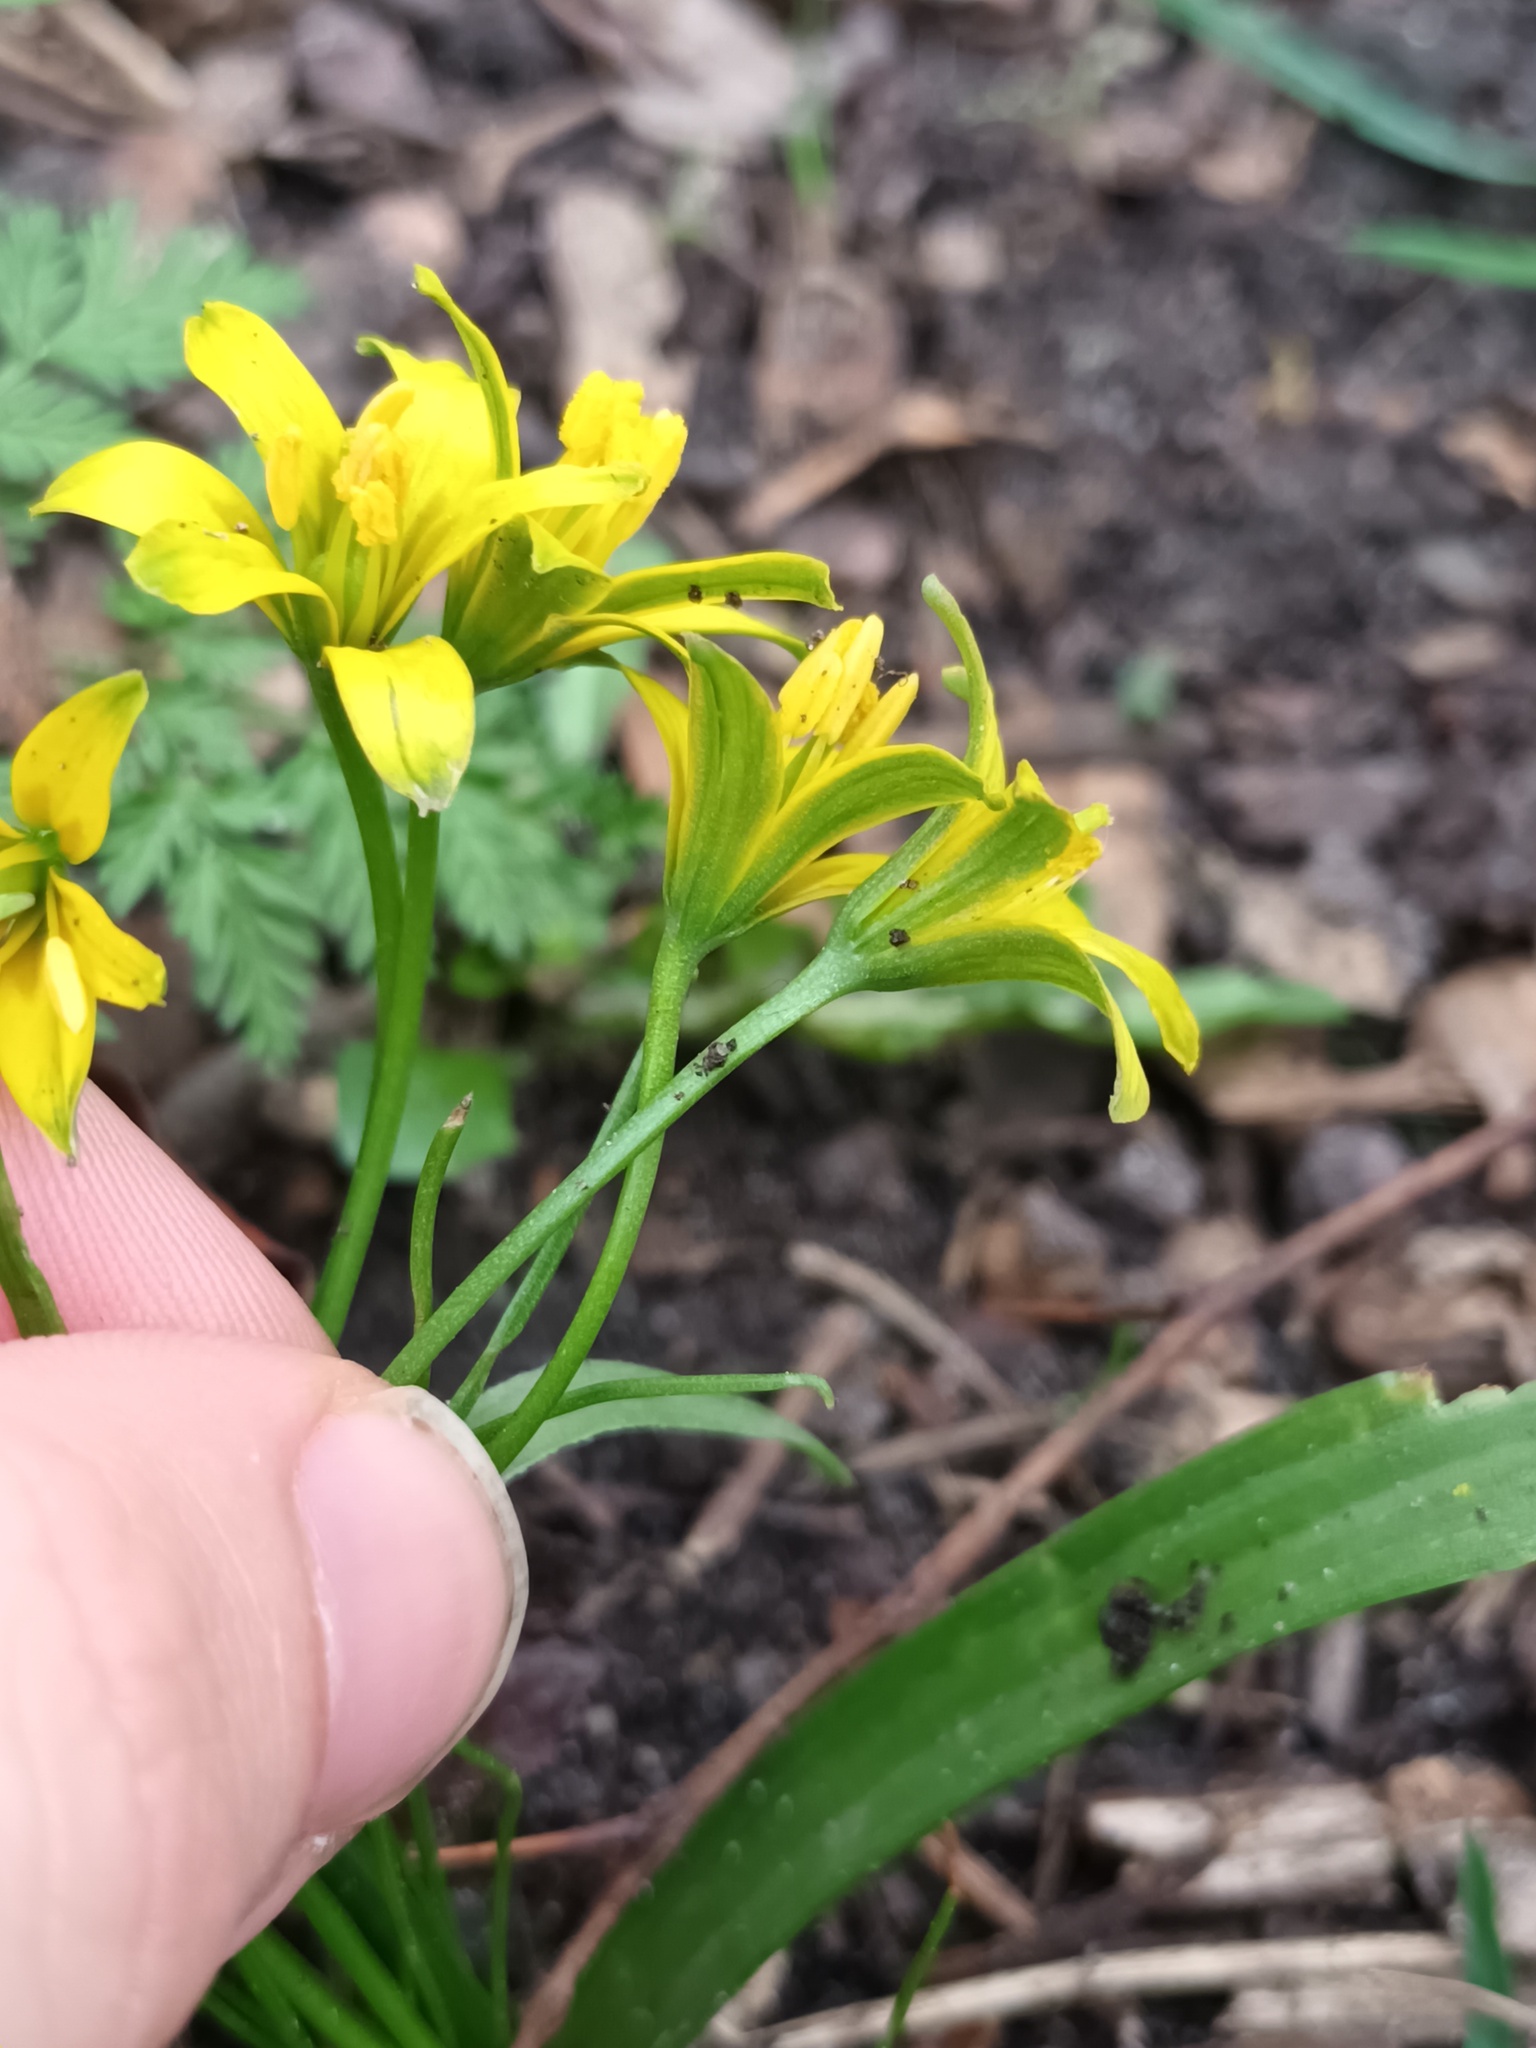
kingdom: Plantae
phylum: Tracheophyta
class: Liliopsida
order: Liliales
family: Liliaceae
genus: Gagea
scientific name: Gagea lutea
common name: Yellow star-of-bethlehem
